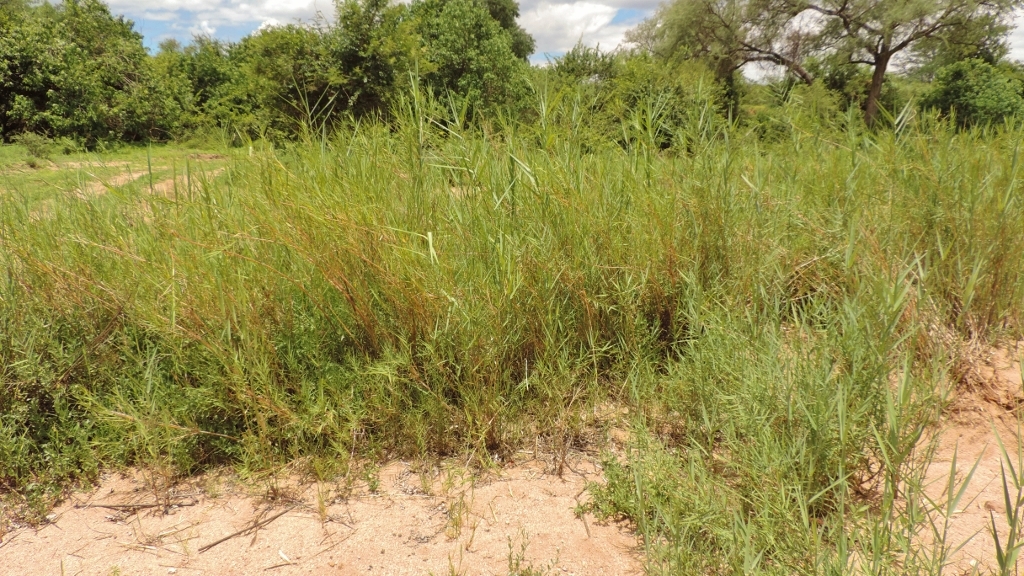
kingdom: Plantae
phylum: Tracheophyta
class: Liliopsida
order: Poales
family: Poaceae
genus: Phragmites
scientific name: Phragmites mauritianus
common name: Reed grass
